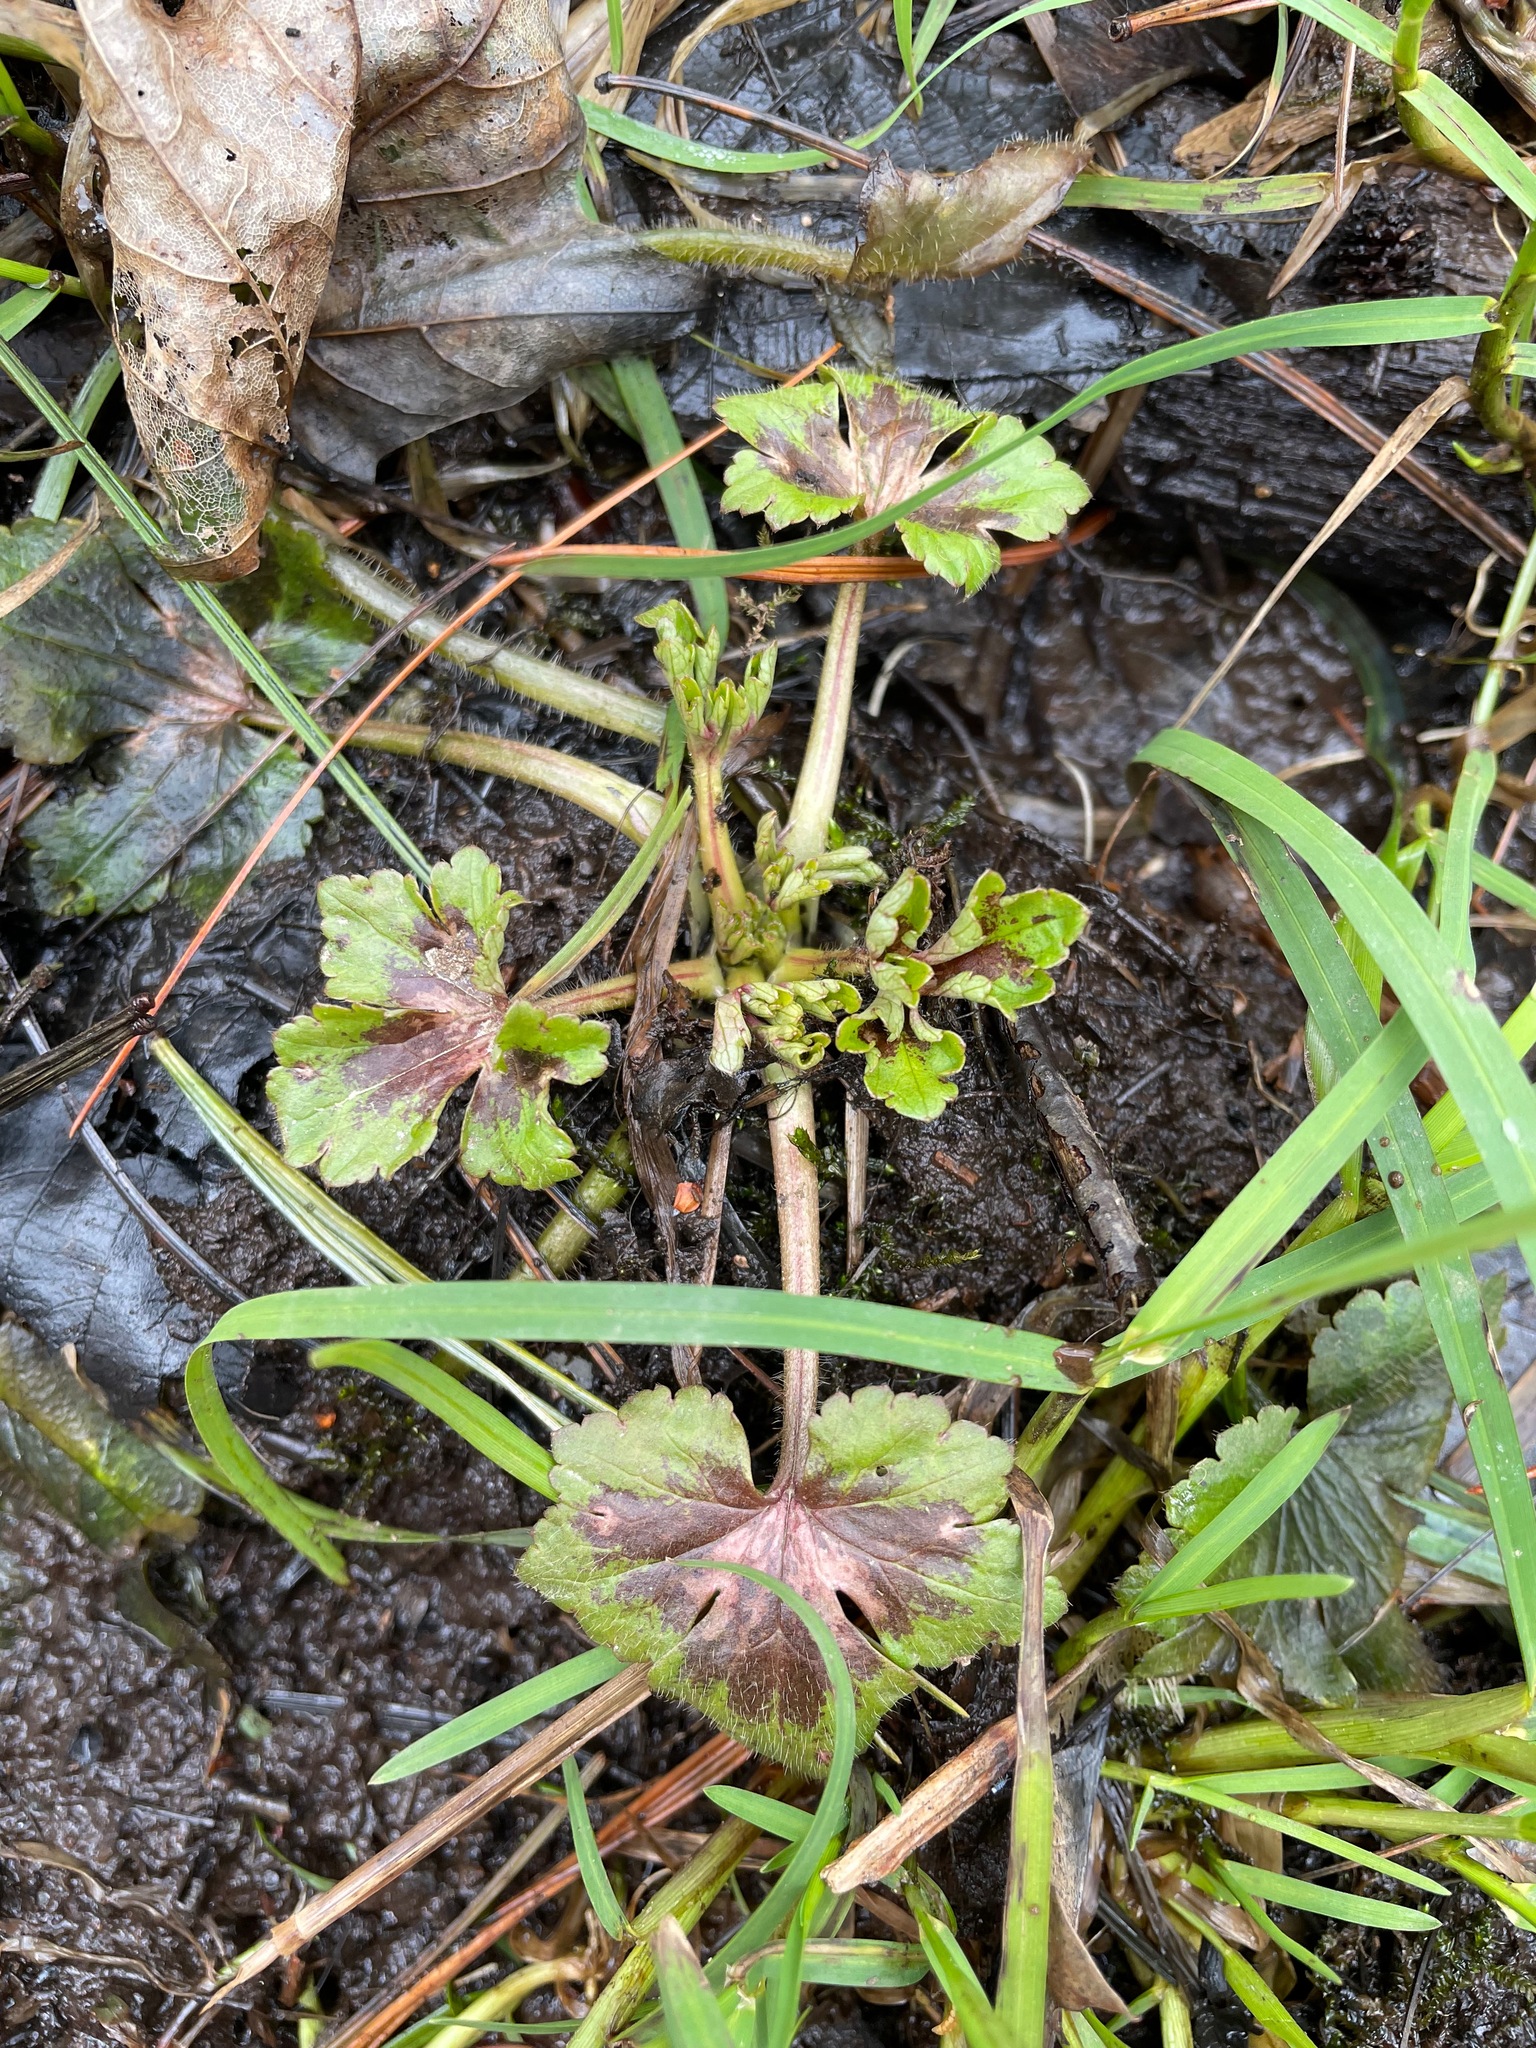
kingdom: Plantae
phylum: Tracheophyta
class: Magnoliopsida
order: Ranunculales
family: Ranunculaceae
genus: Ranunculus
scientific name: Ranunculus recurvatus
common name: Blisterwort
